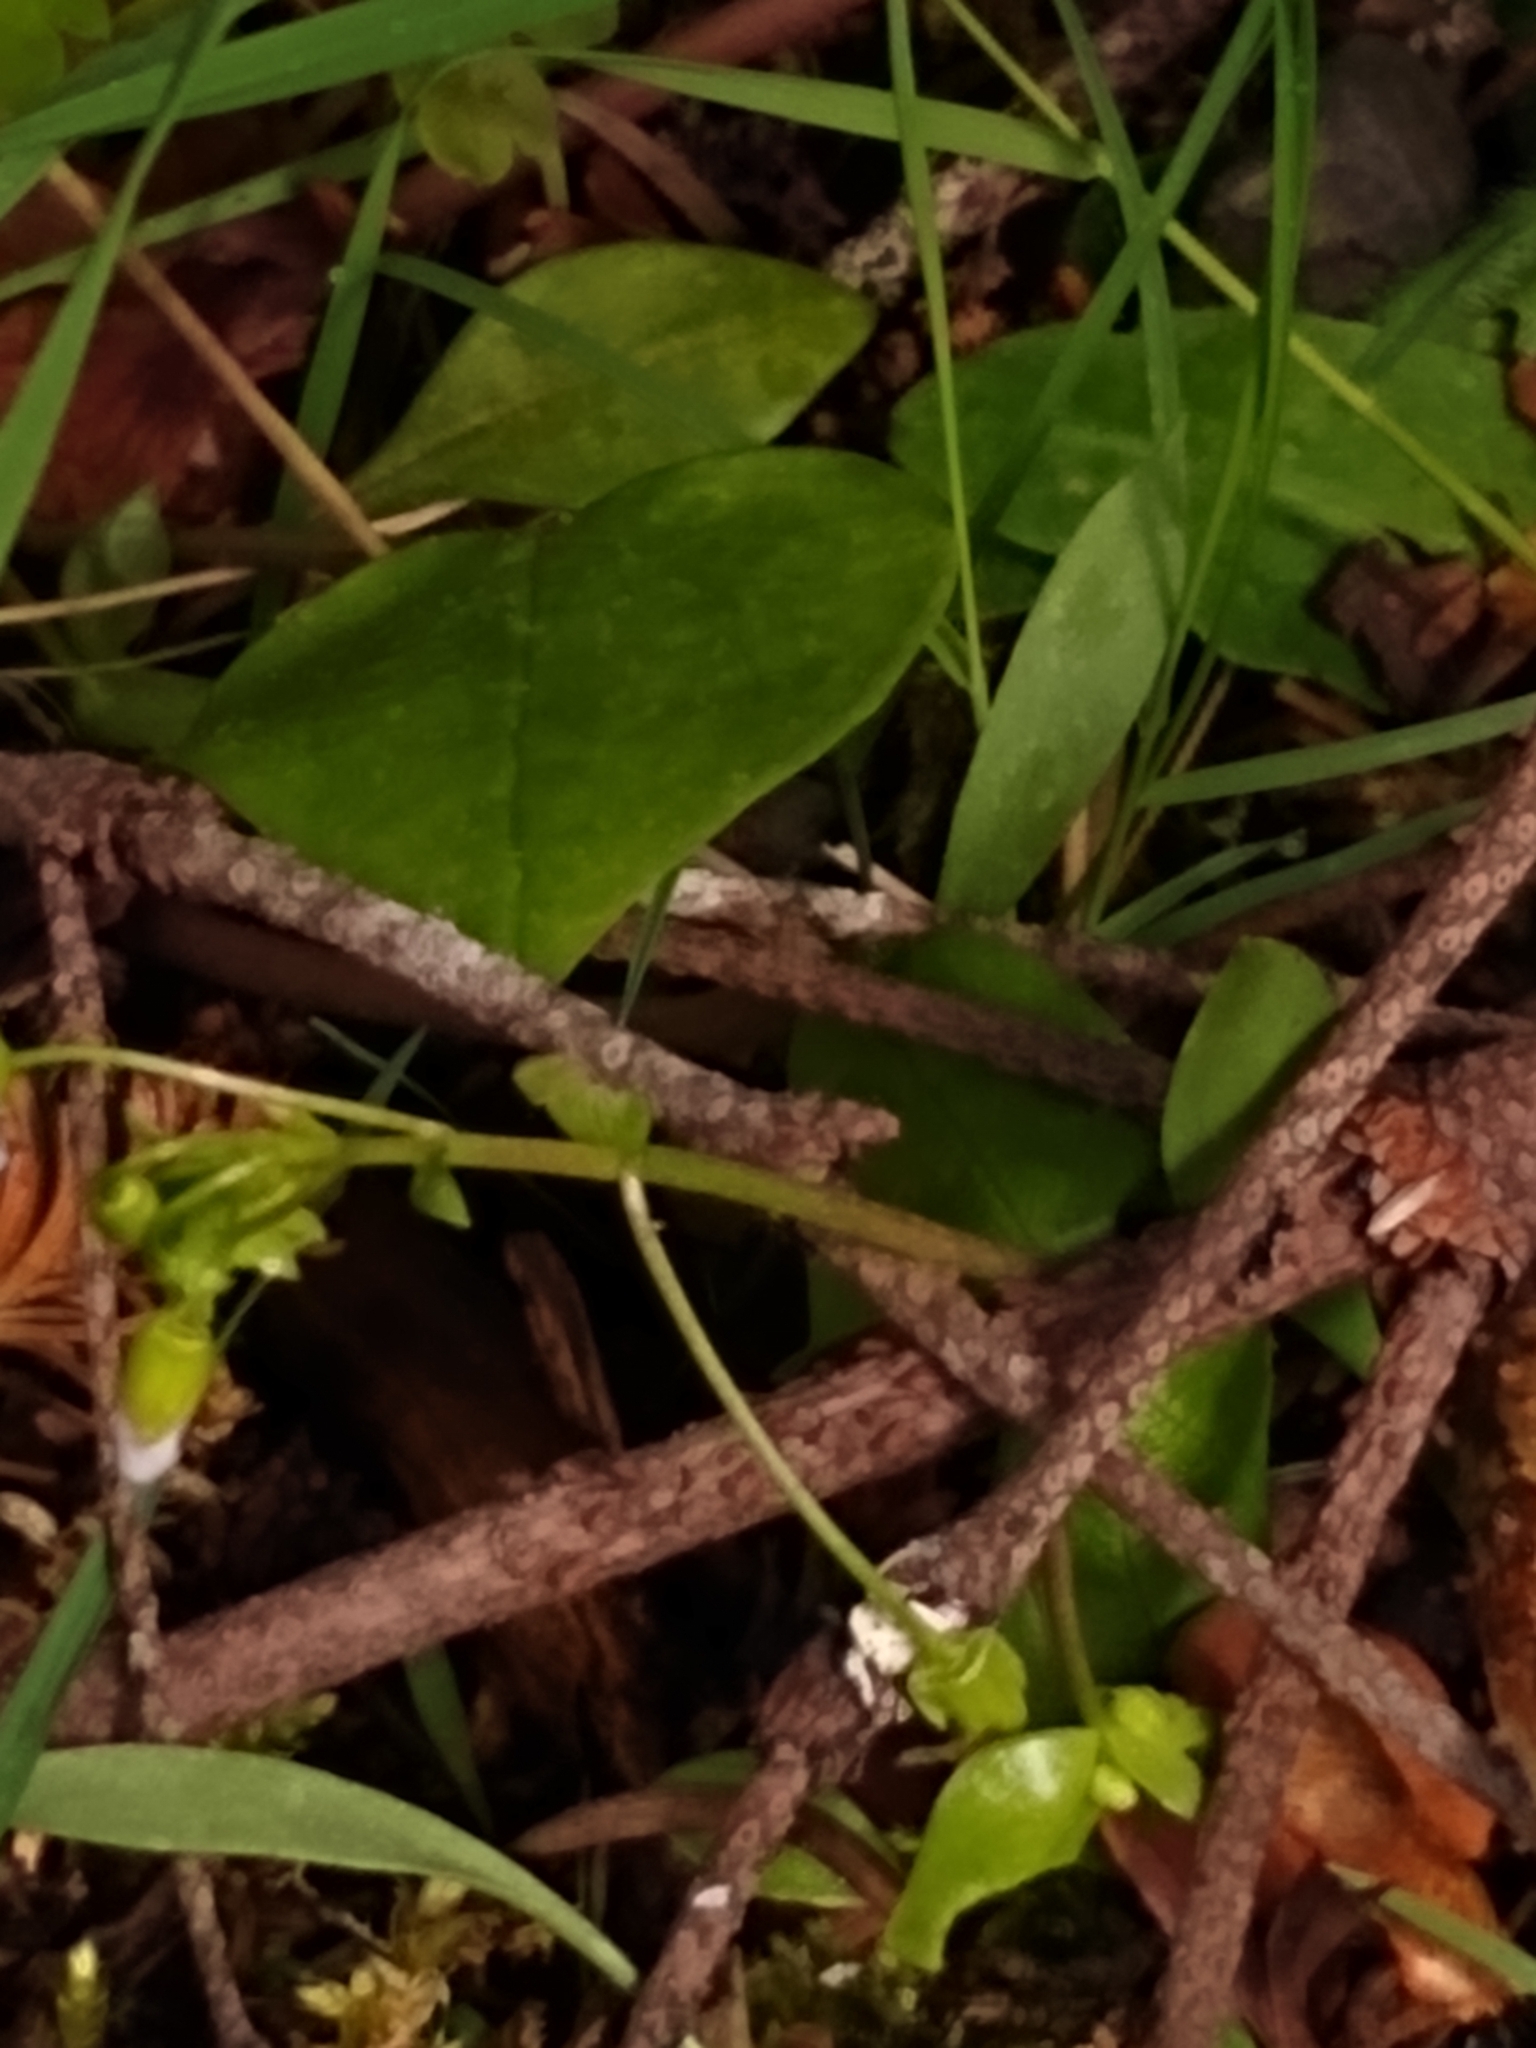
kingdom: Plantae
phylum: Tracheophyta
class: Magnoliopsida
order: Caryophyllales
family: Montiaceae
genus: Claytonia
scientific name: Claytonia sibirica
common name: Pink purslane
